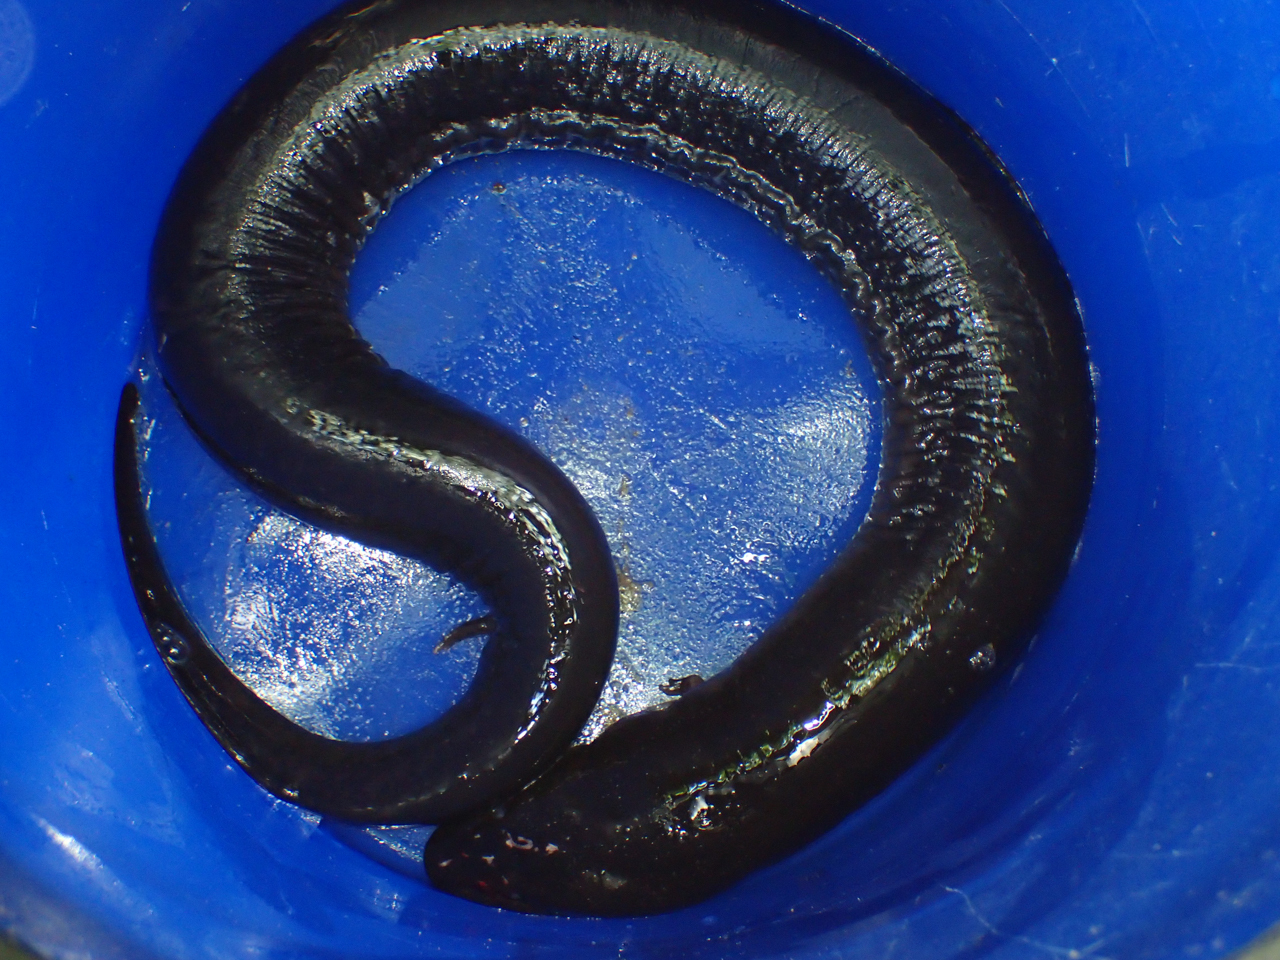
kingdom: Animalia
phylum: Chordata
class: Amphibia
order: Caudata
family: Amphiumidae
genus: Amphiuma
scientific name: Amphiuma tridactylum
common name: Three-toed amphiuma
